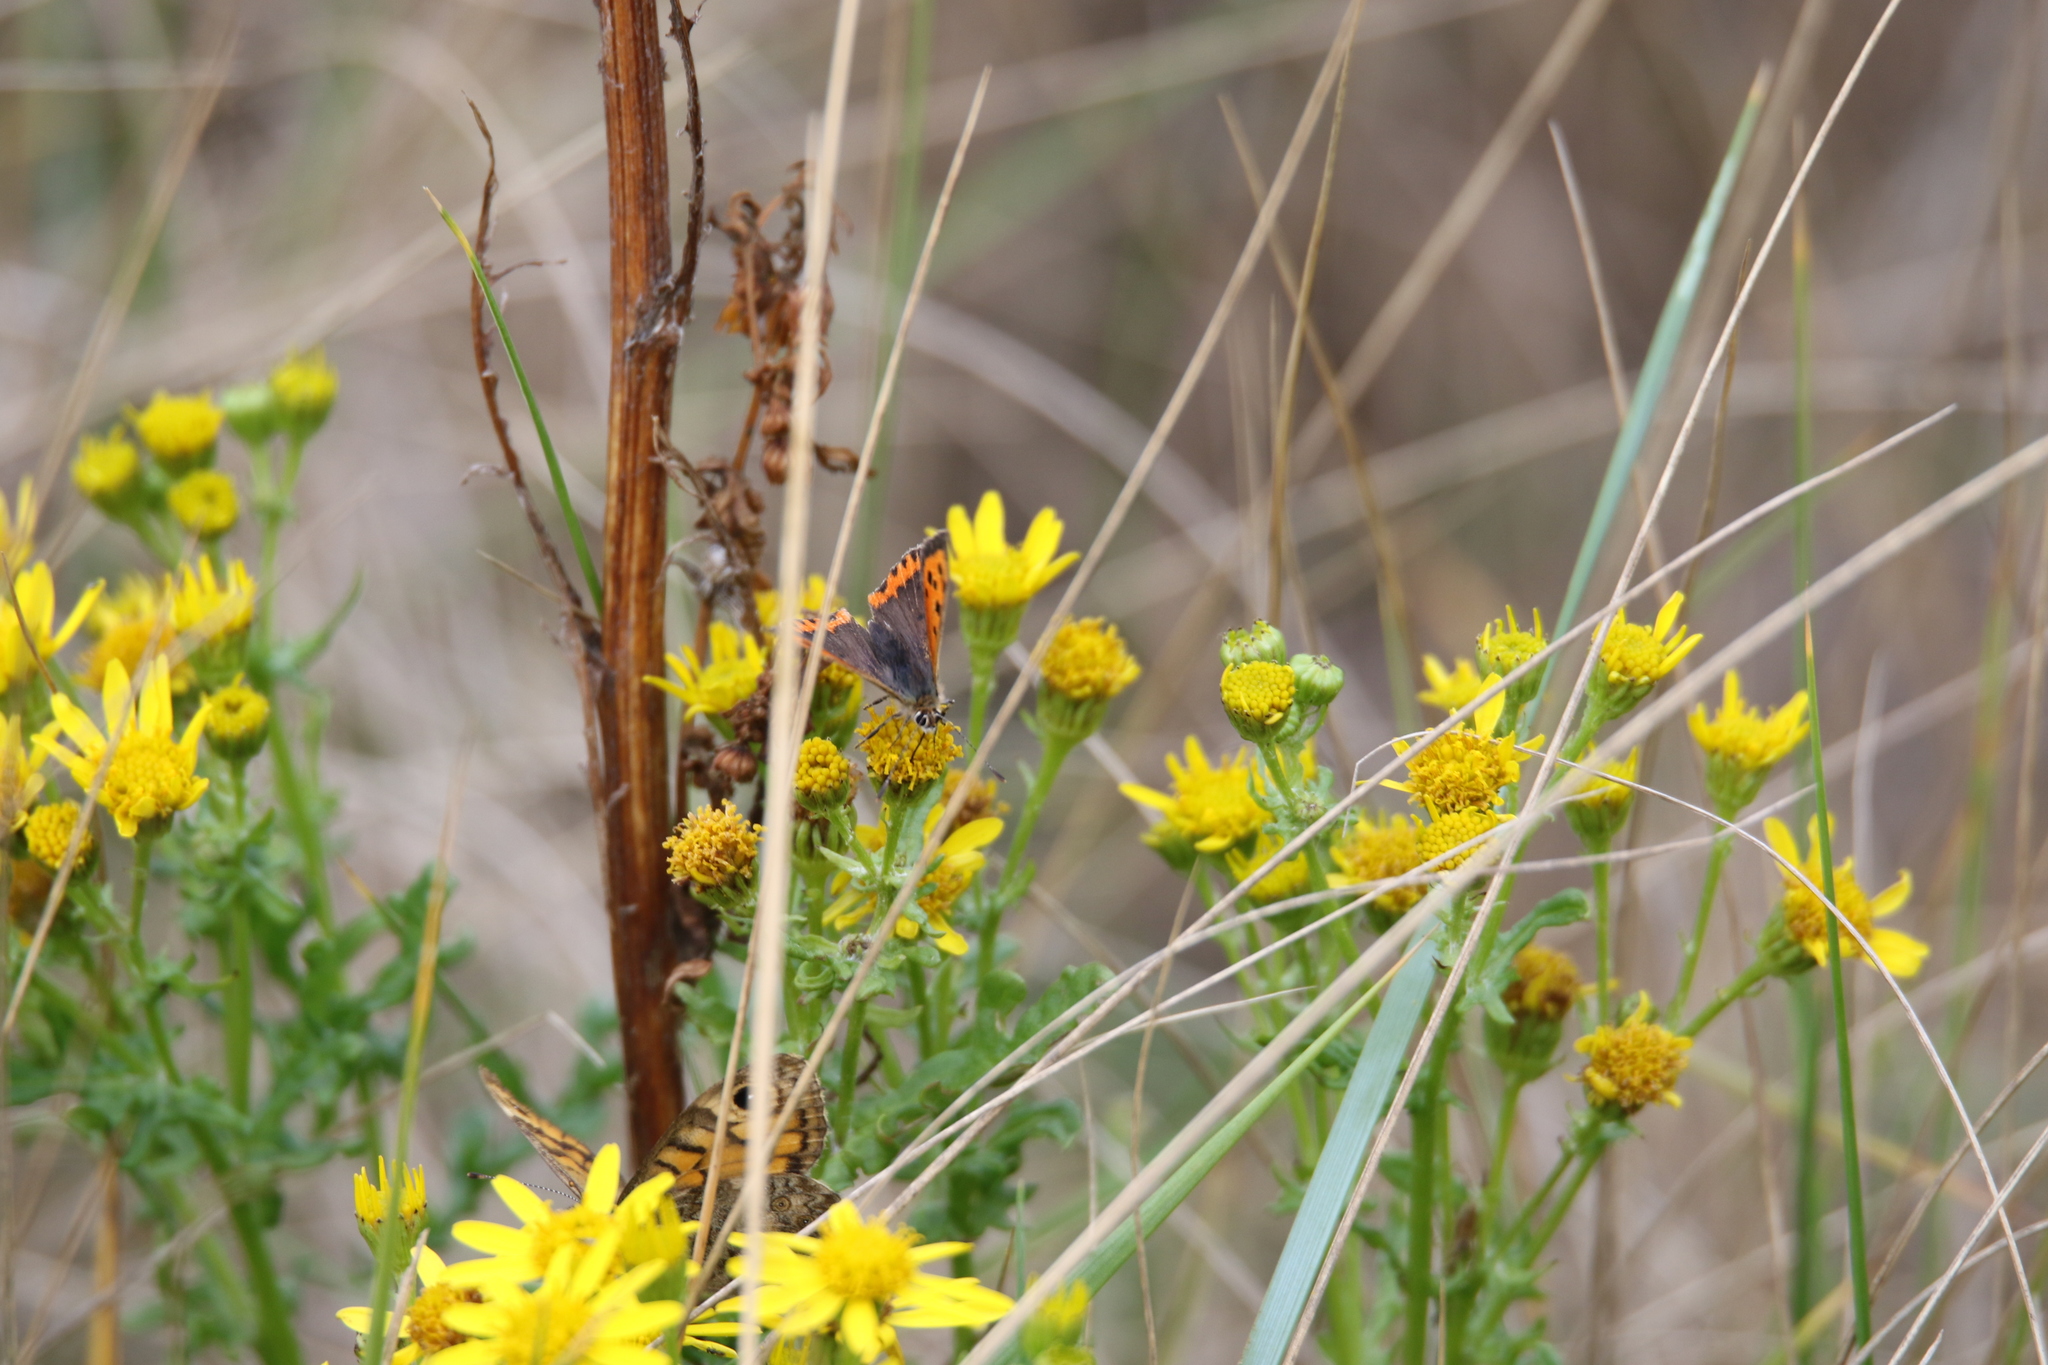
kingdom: Animalia
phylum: Arthropoda
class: Insecta
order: Lepidoptera
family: Lycaenidae
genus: Lycaena
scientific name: Lycaena phlaeas
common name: Small copper
